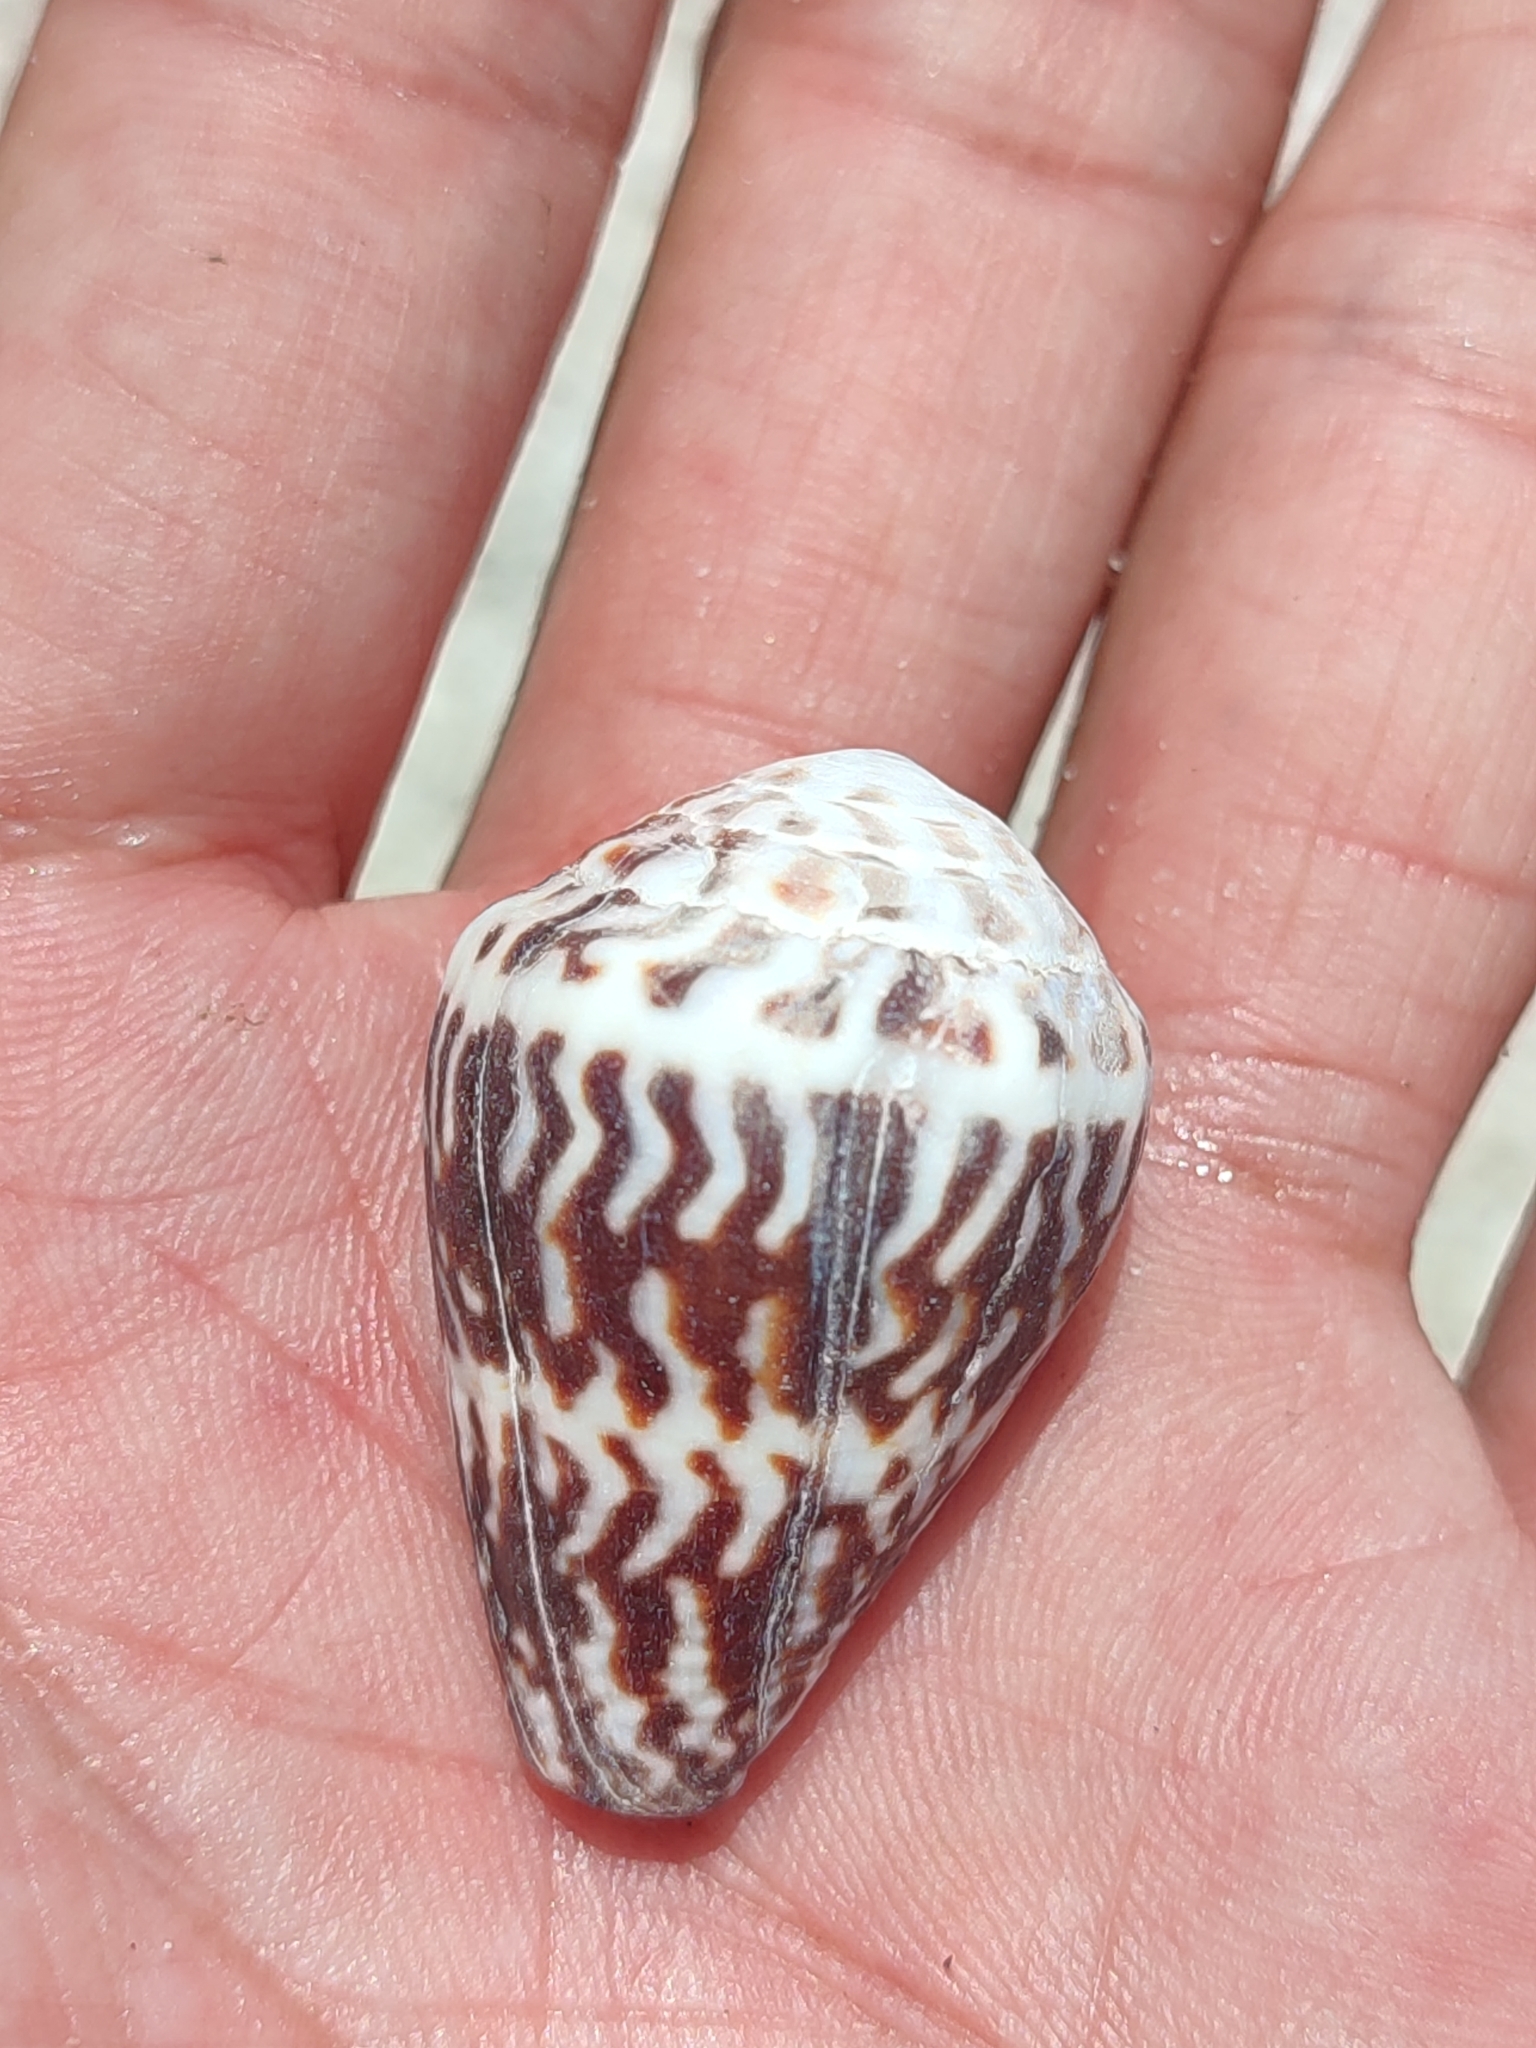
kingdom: Animalia
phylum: Mollusca
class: Gastropoda
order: Neogastropoda
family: Conidae
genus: Conus
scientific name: Conus chaldaeus
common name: Astrologer's cone
